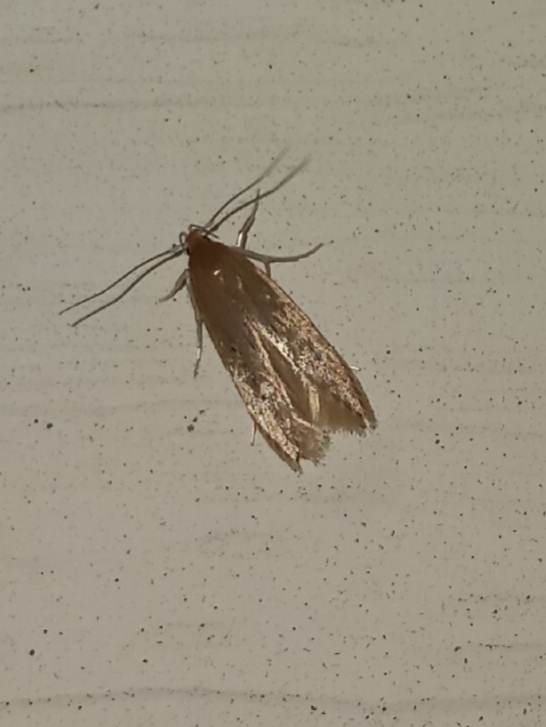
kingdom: Animalia
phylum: Arthropoda
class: Insecta
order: Lepidoptera
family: Cosmopterigidae
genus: Limnaecia
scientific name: Limnaecia phragmitella
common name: Bulrush cosmet
